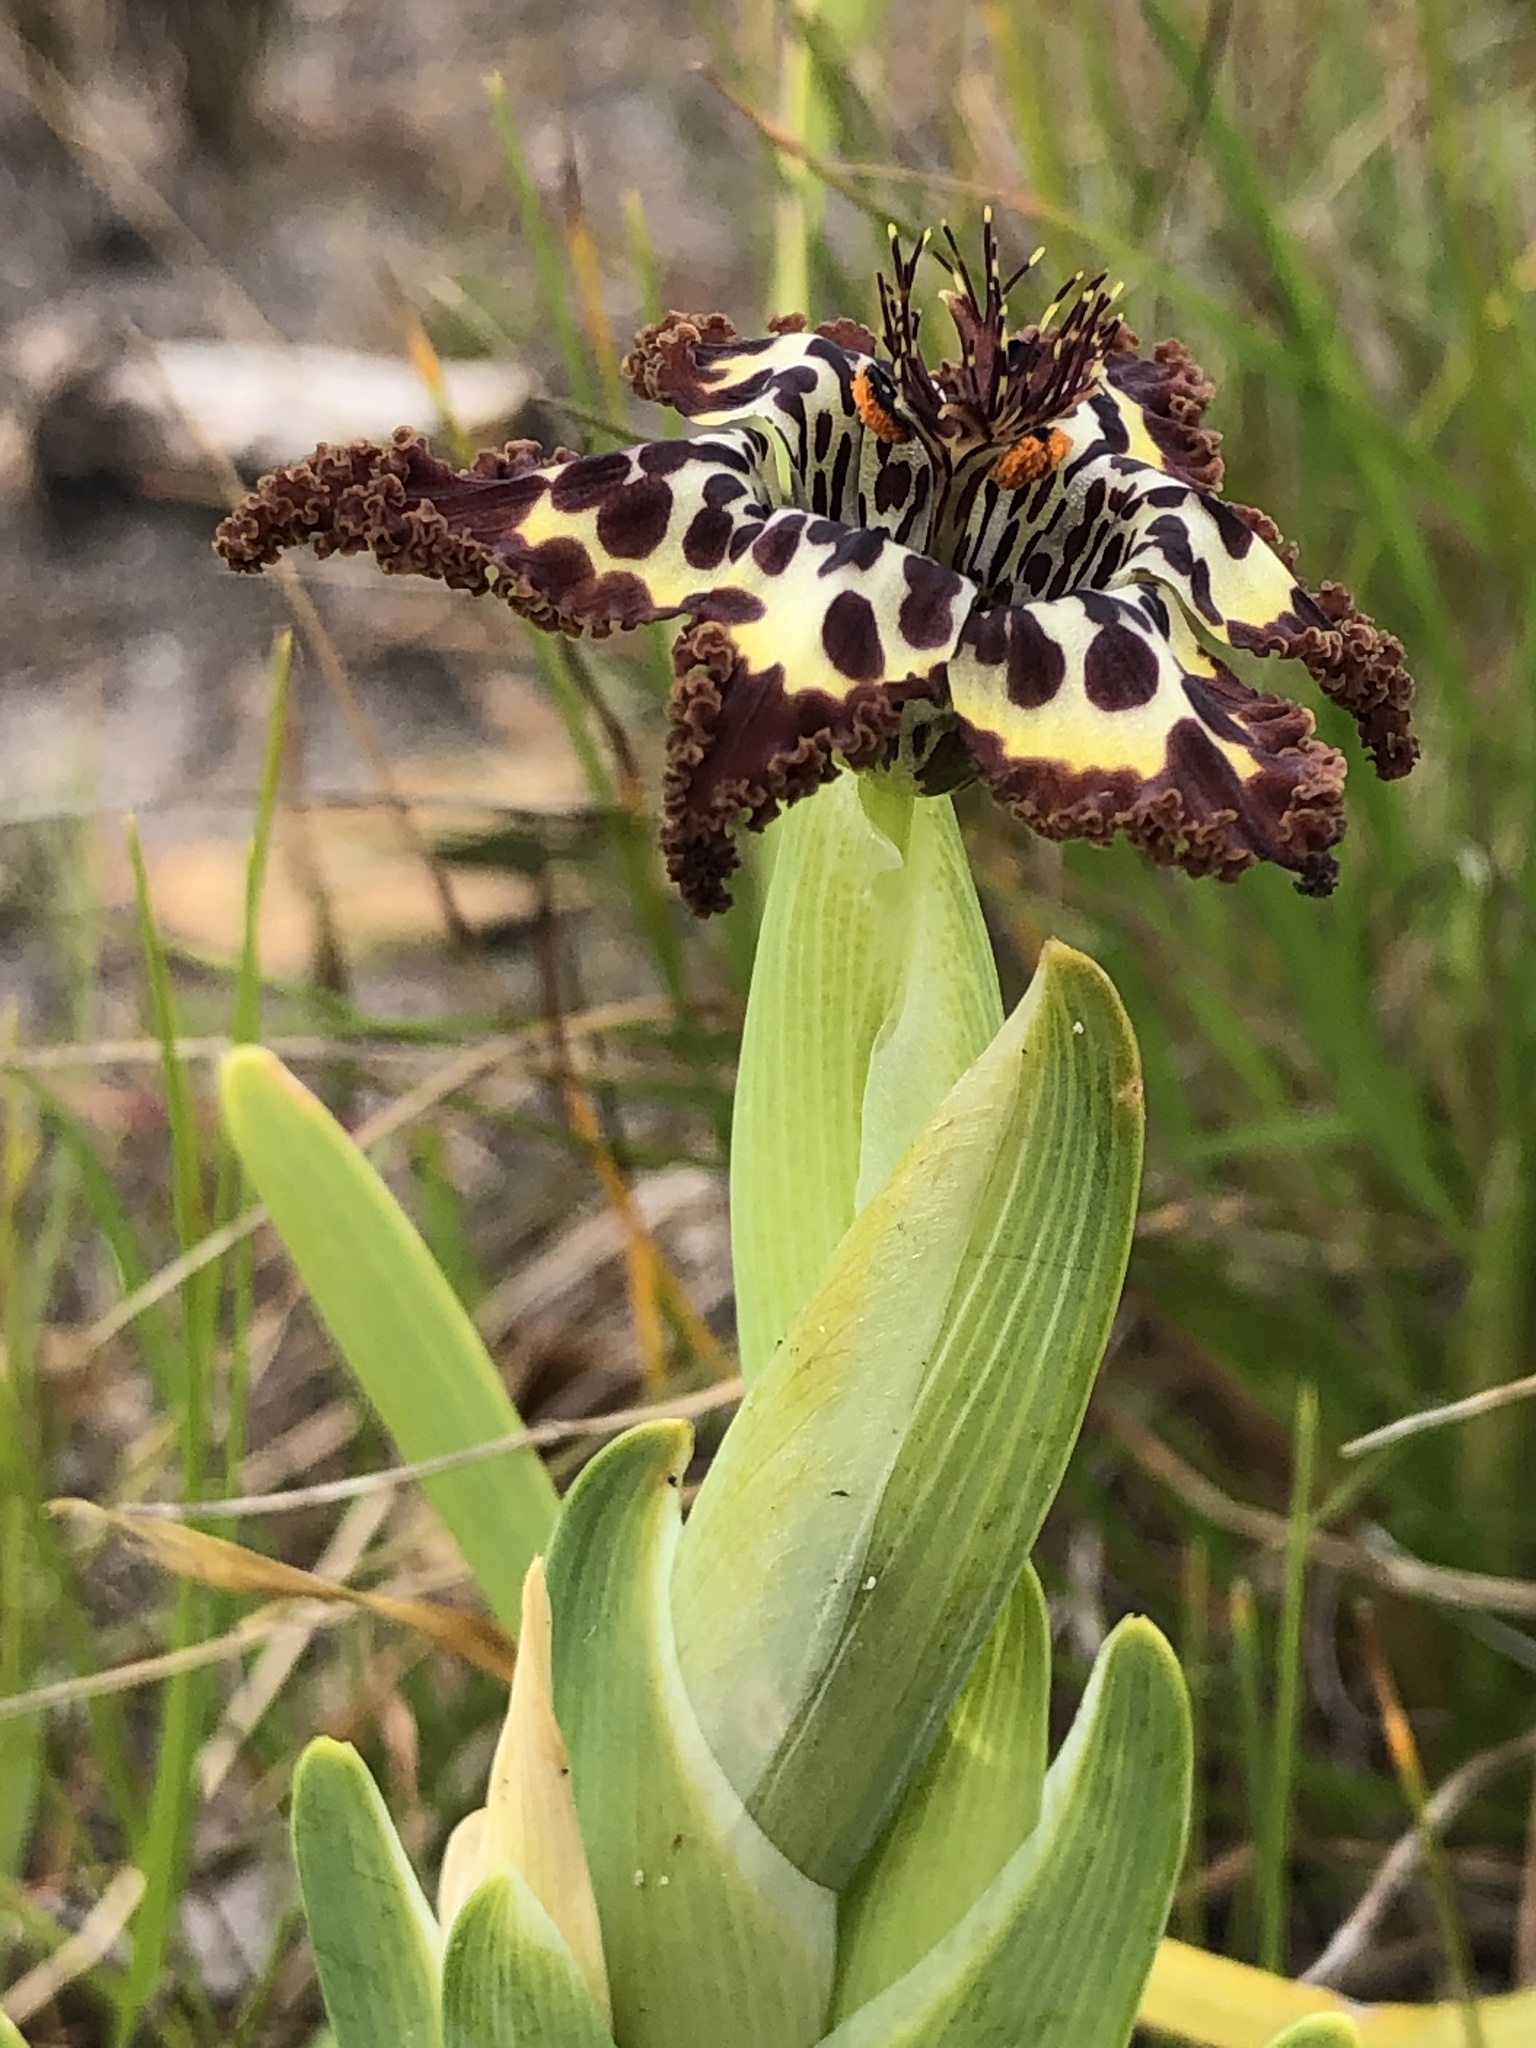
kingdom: Plantae
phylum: Tracheophyta
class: Liliopsida
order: Asparagales
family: Iridaceae
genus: Ferraria
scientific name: Ferraria crispa
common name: Black-flag
